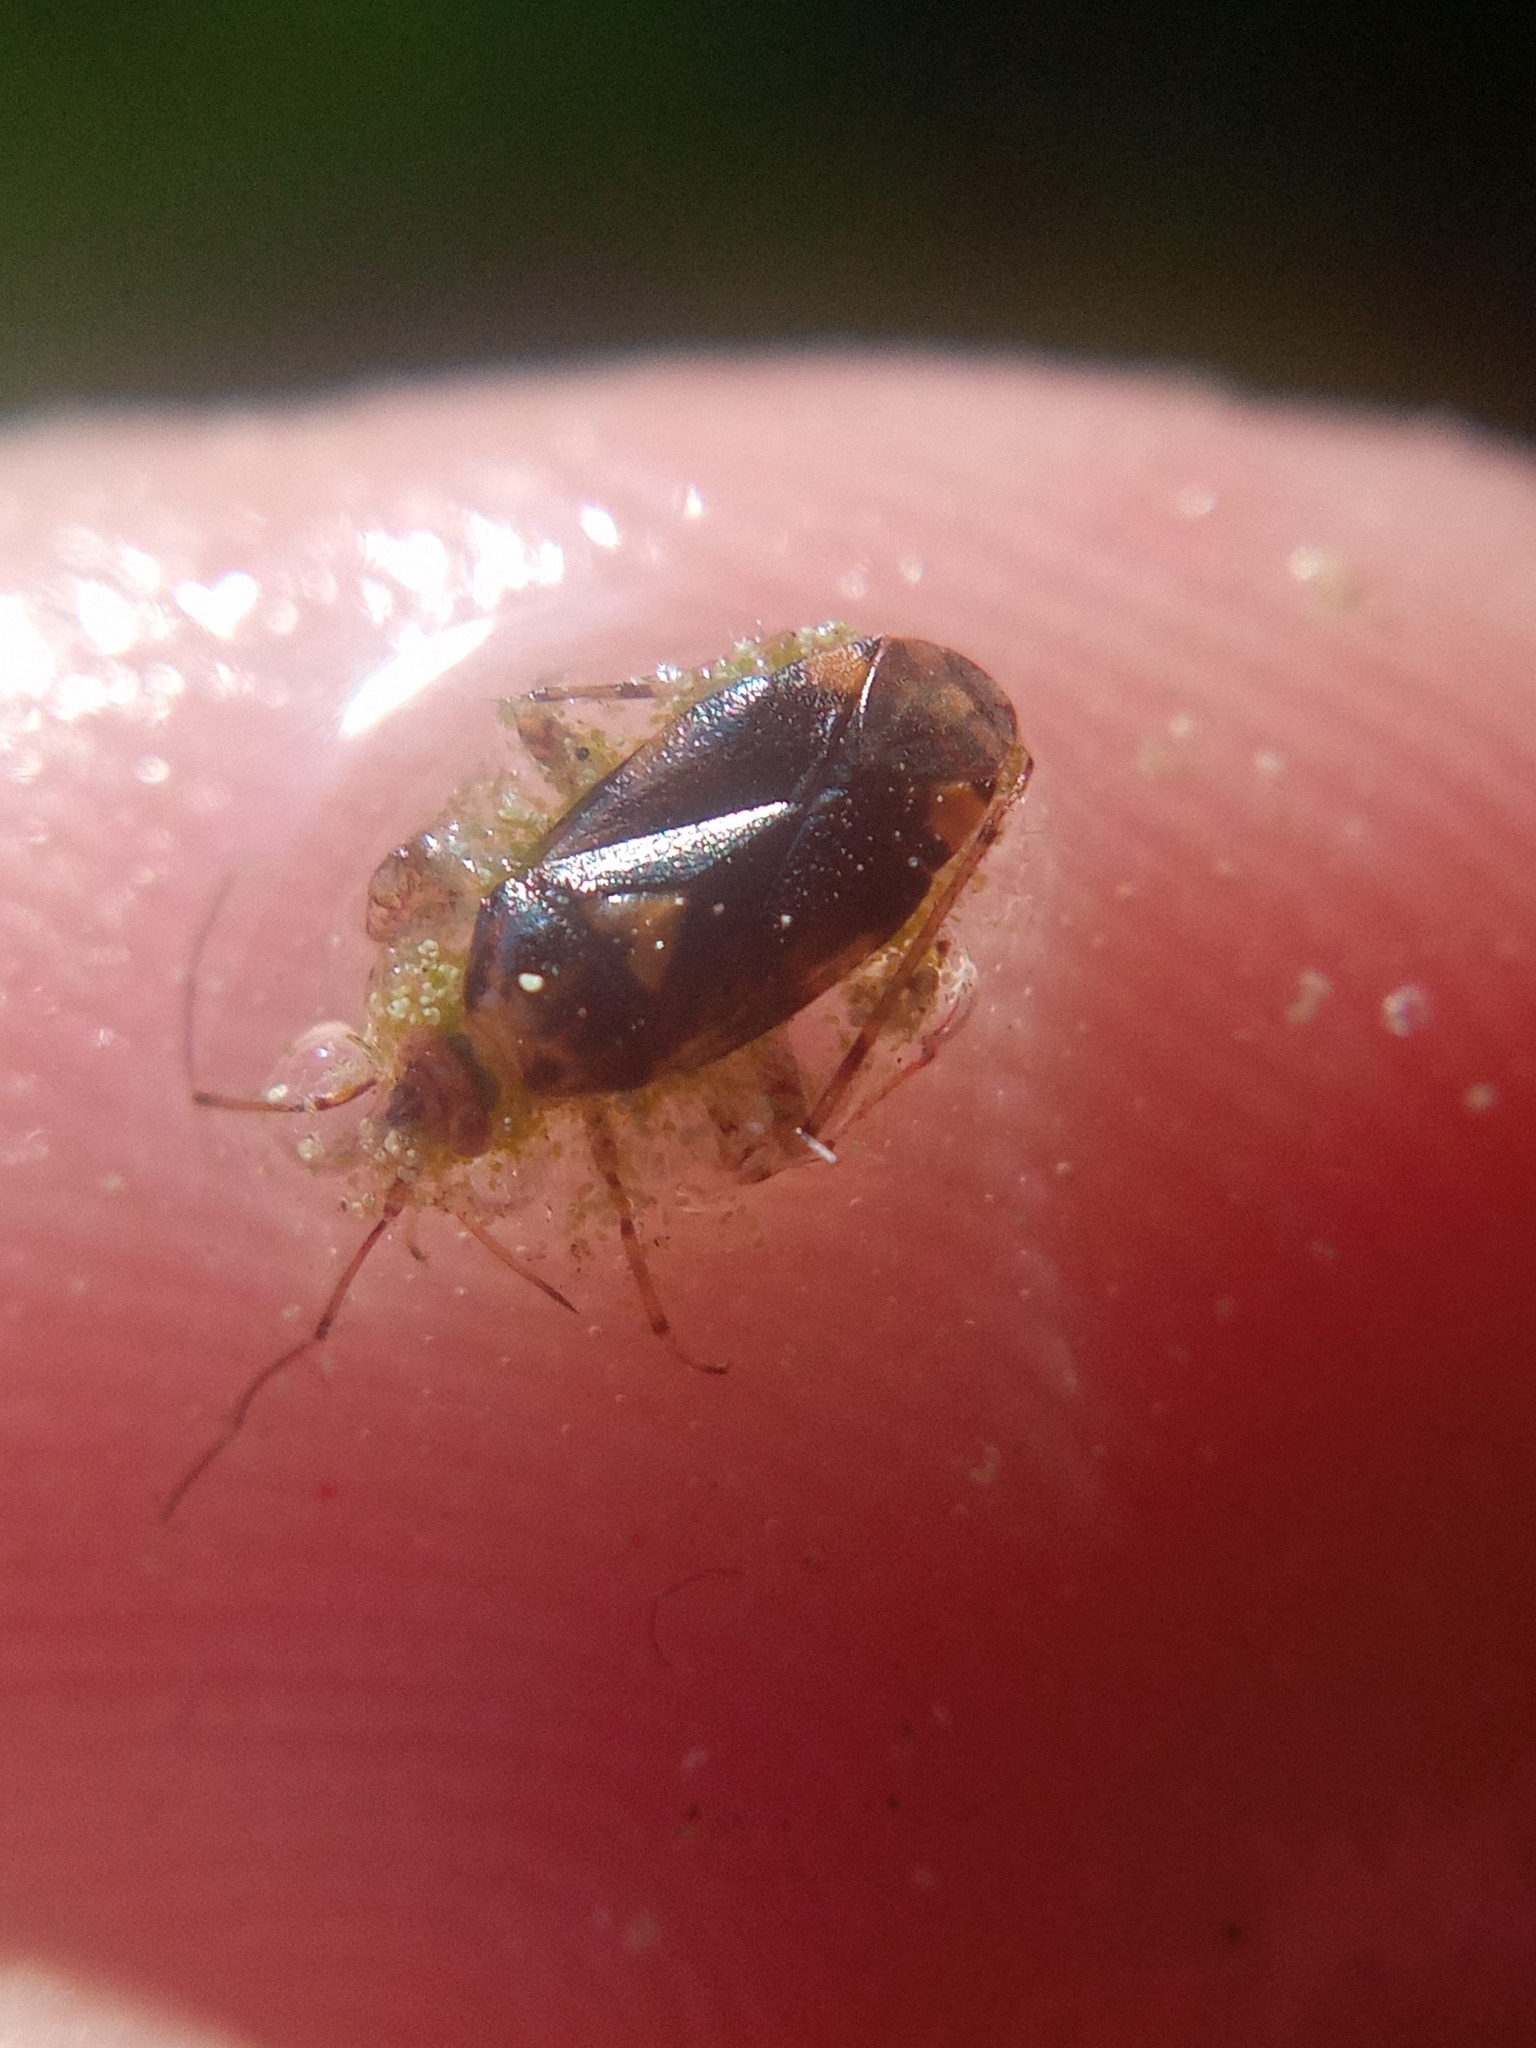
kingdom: Animalia
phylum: Arthropoda
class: Insecta
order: Hemiptera
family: Miridae
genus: Liocoris
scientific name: Liocoris tripustulatus
